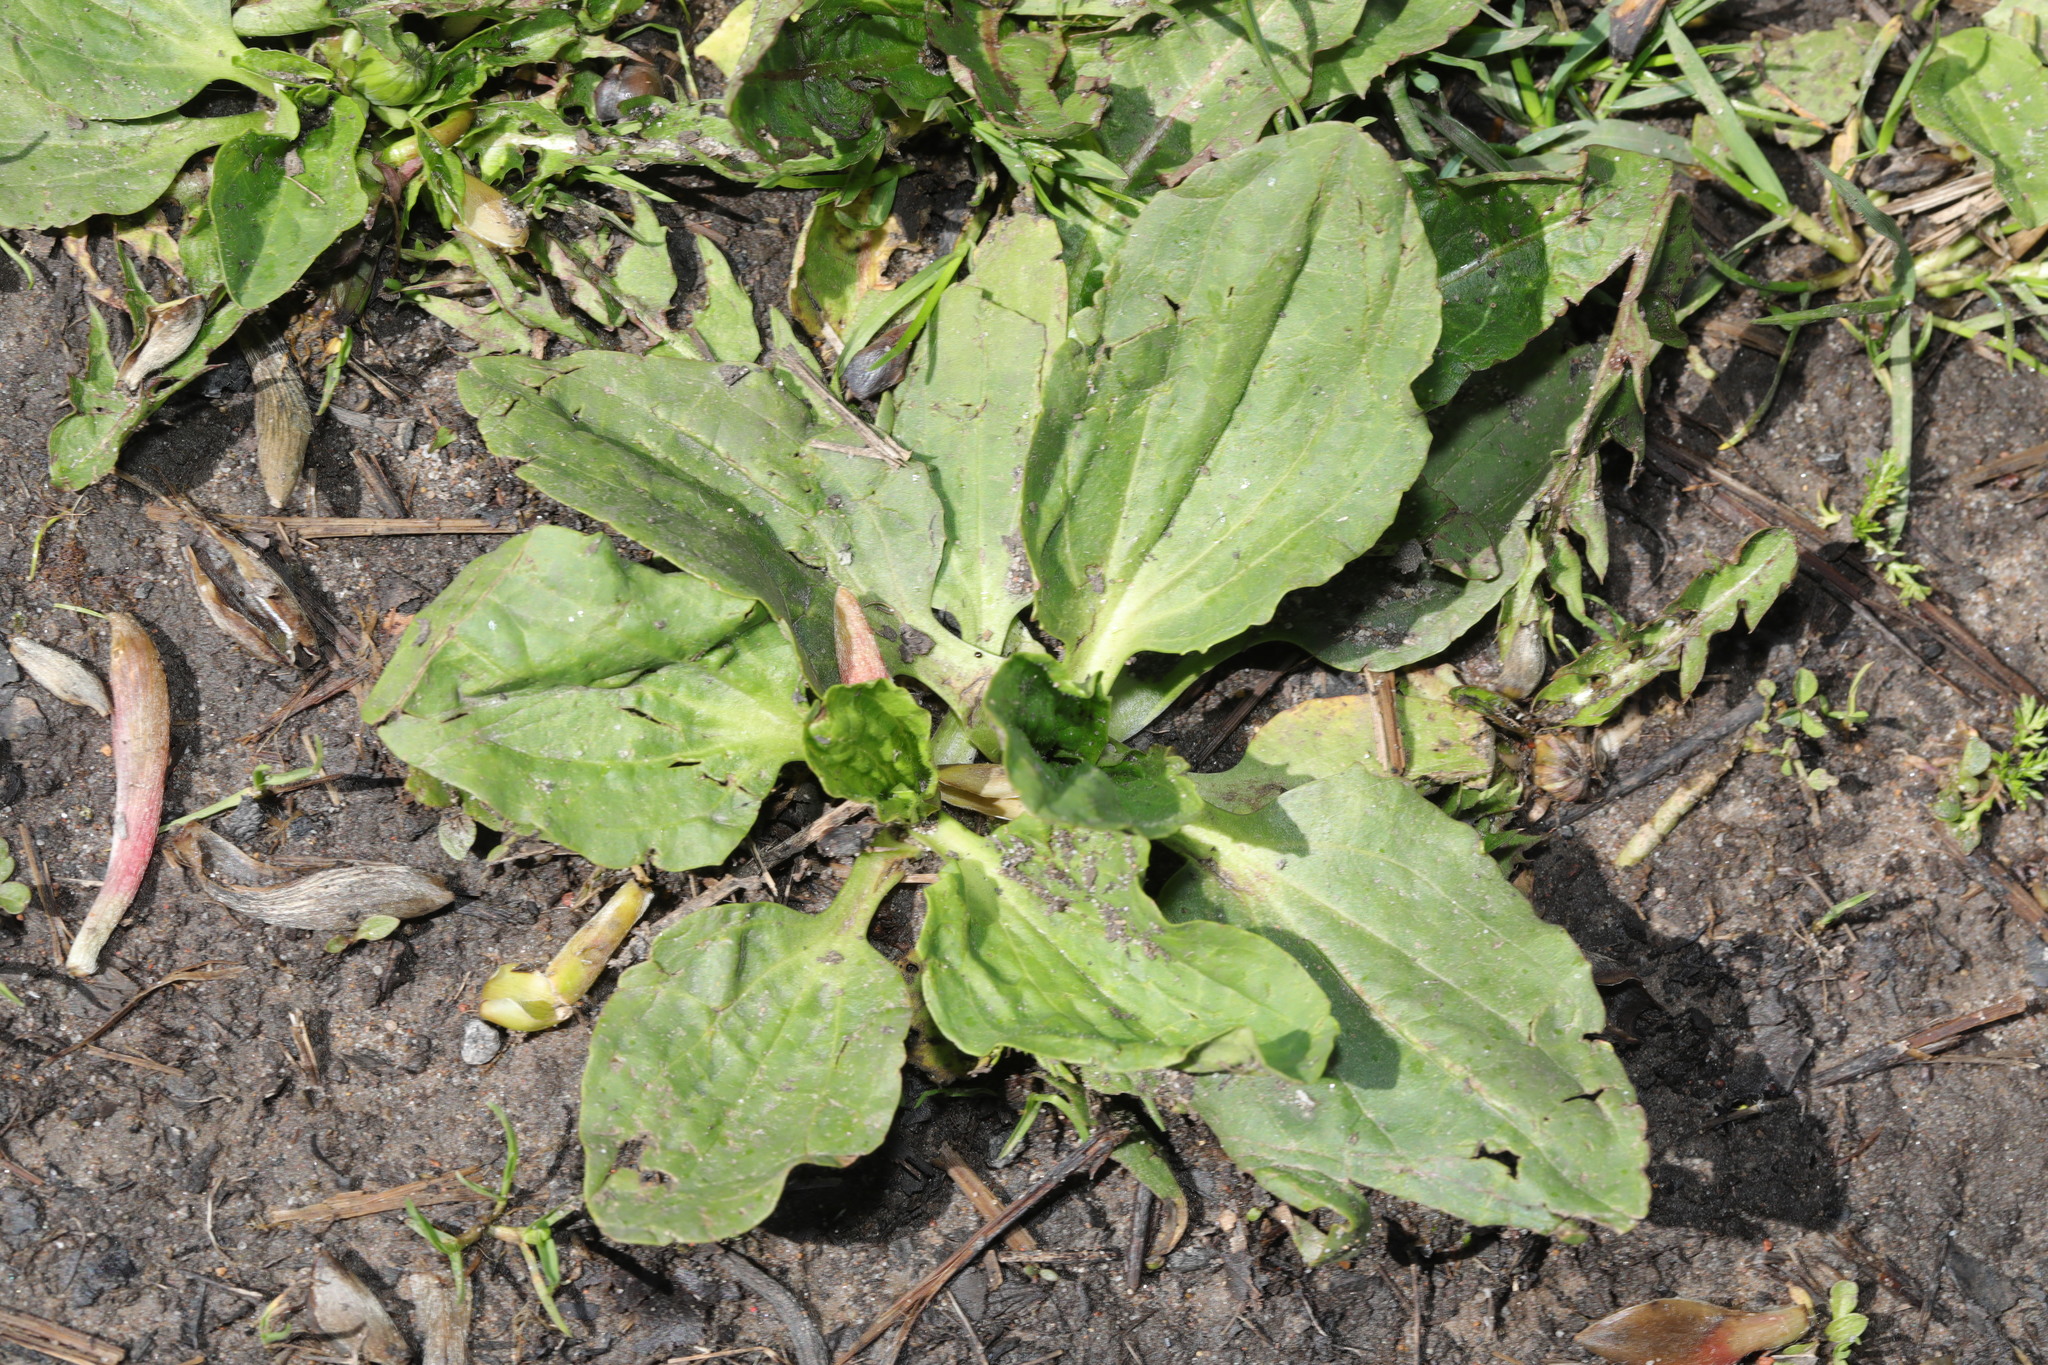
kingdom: Plantae
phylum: Tracheophyta
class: Magnoliopsida
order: Lamiales
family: Plantaginaceae
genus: Plantago
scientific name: Plantago major
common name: Common plantain
